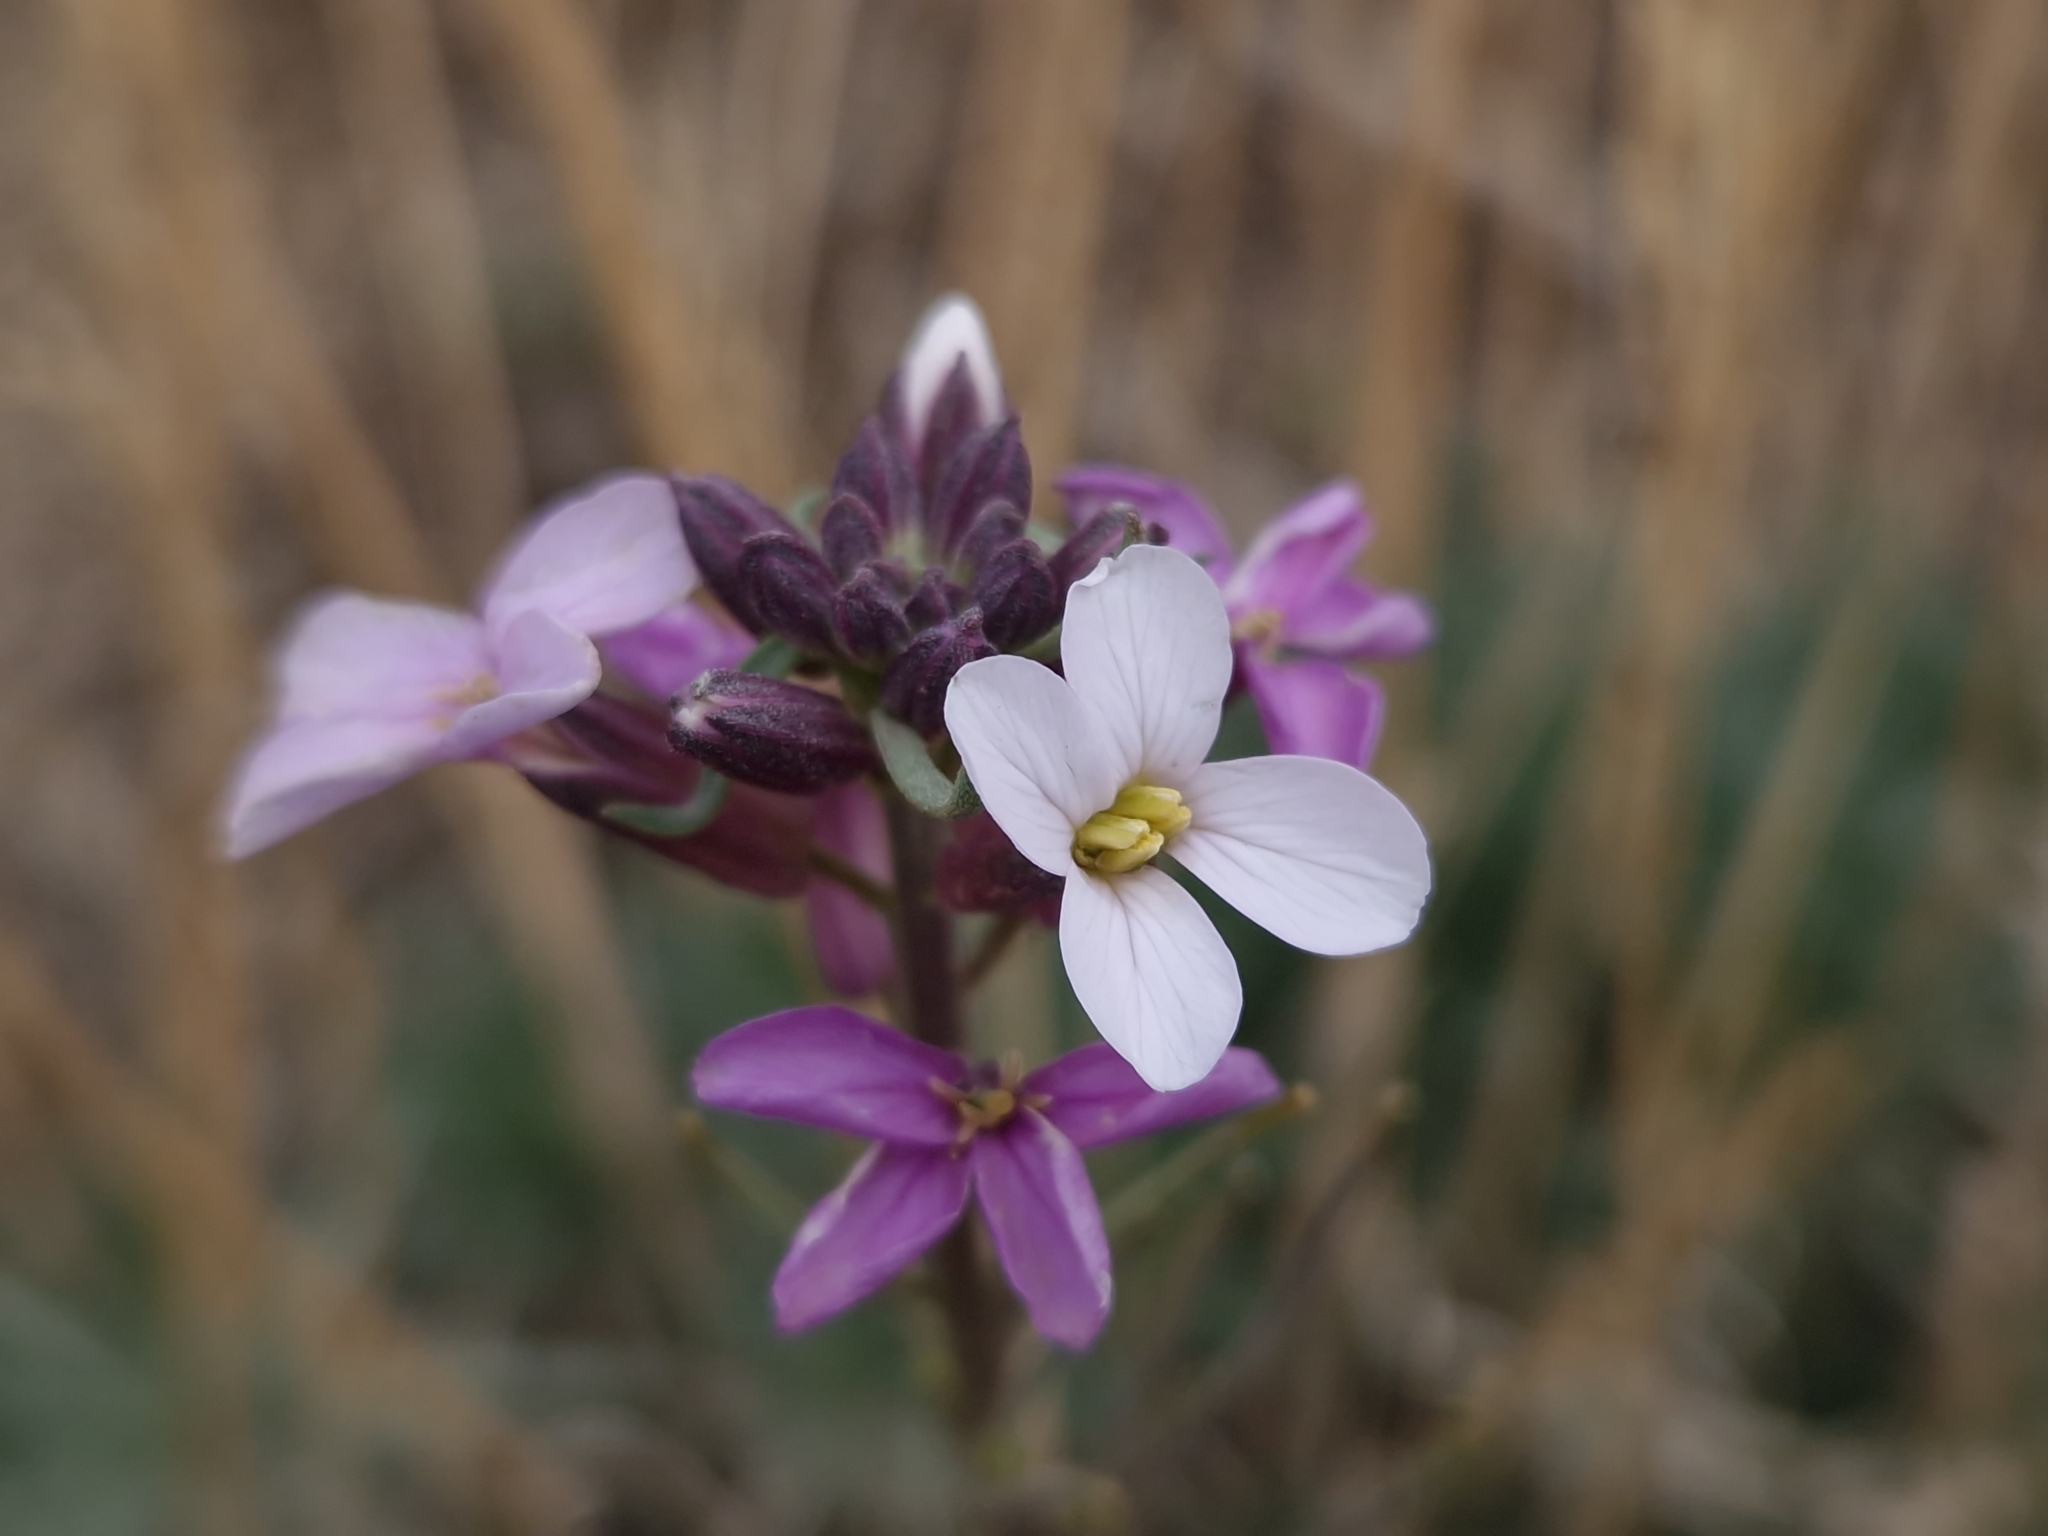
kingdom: Plantae
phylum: Tracheophyta
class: Magnoliopsida
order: Brassicales
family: Brassicaceae
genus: Erysimum
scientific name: Erysimum scoparium
